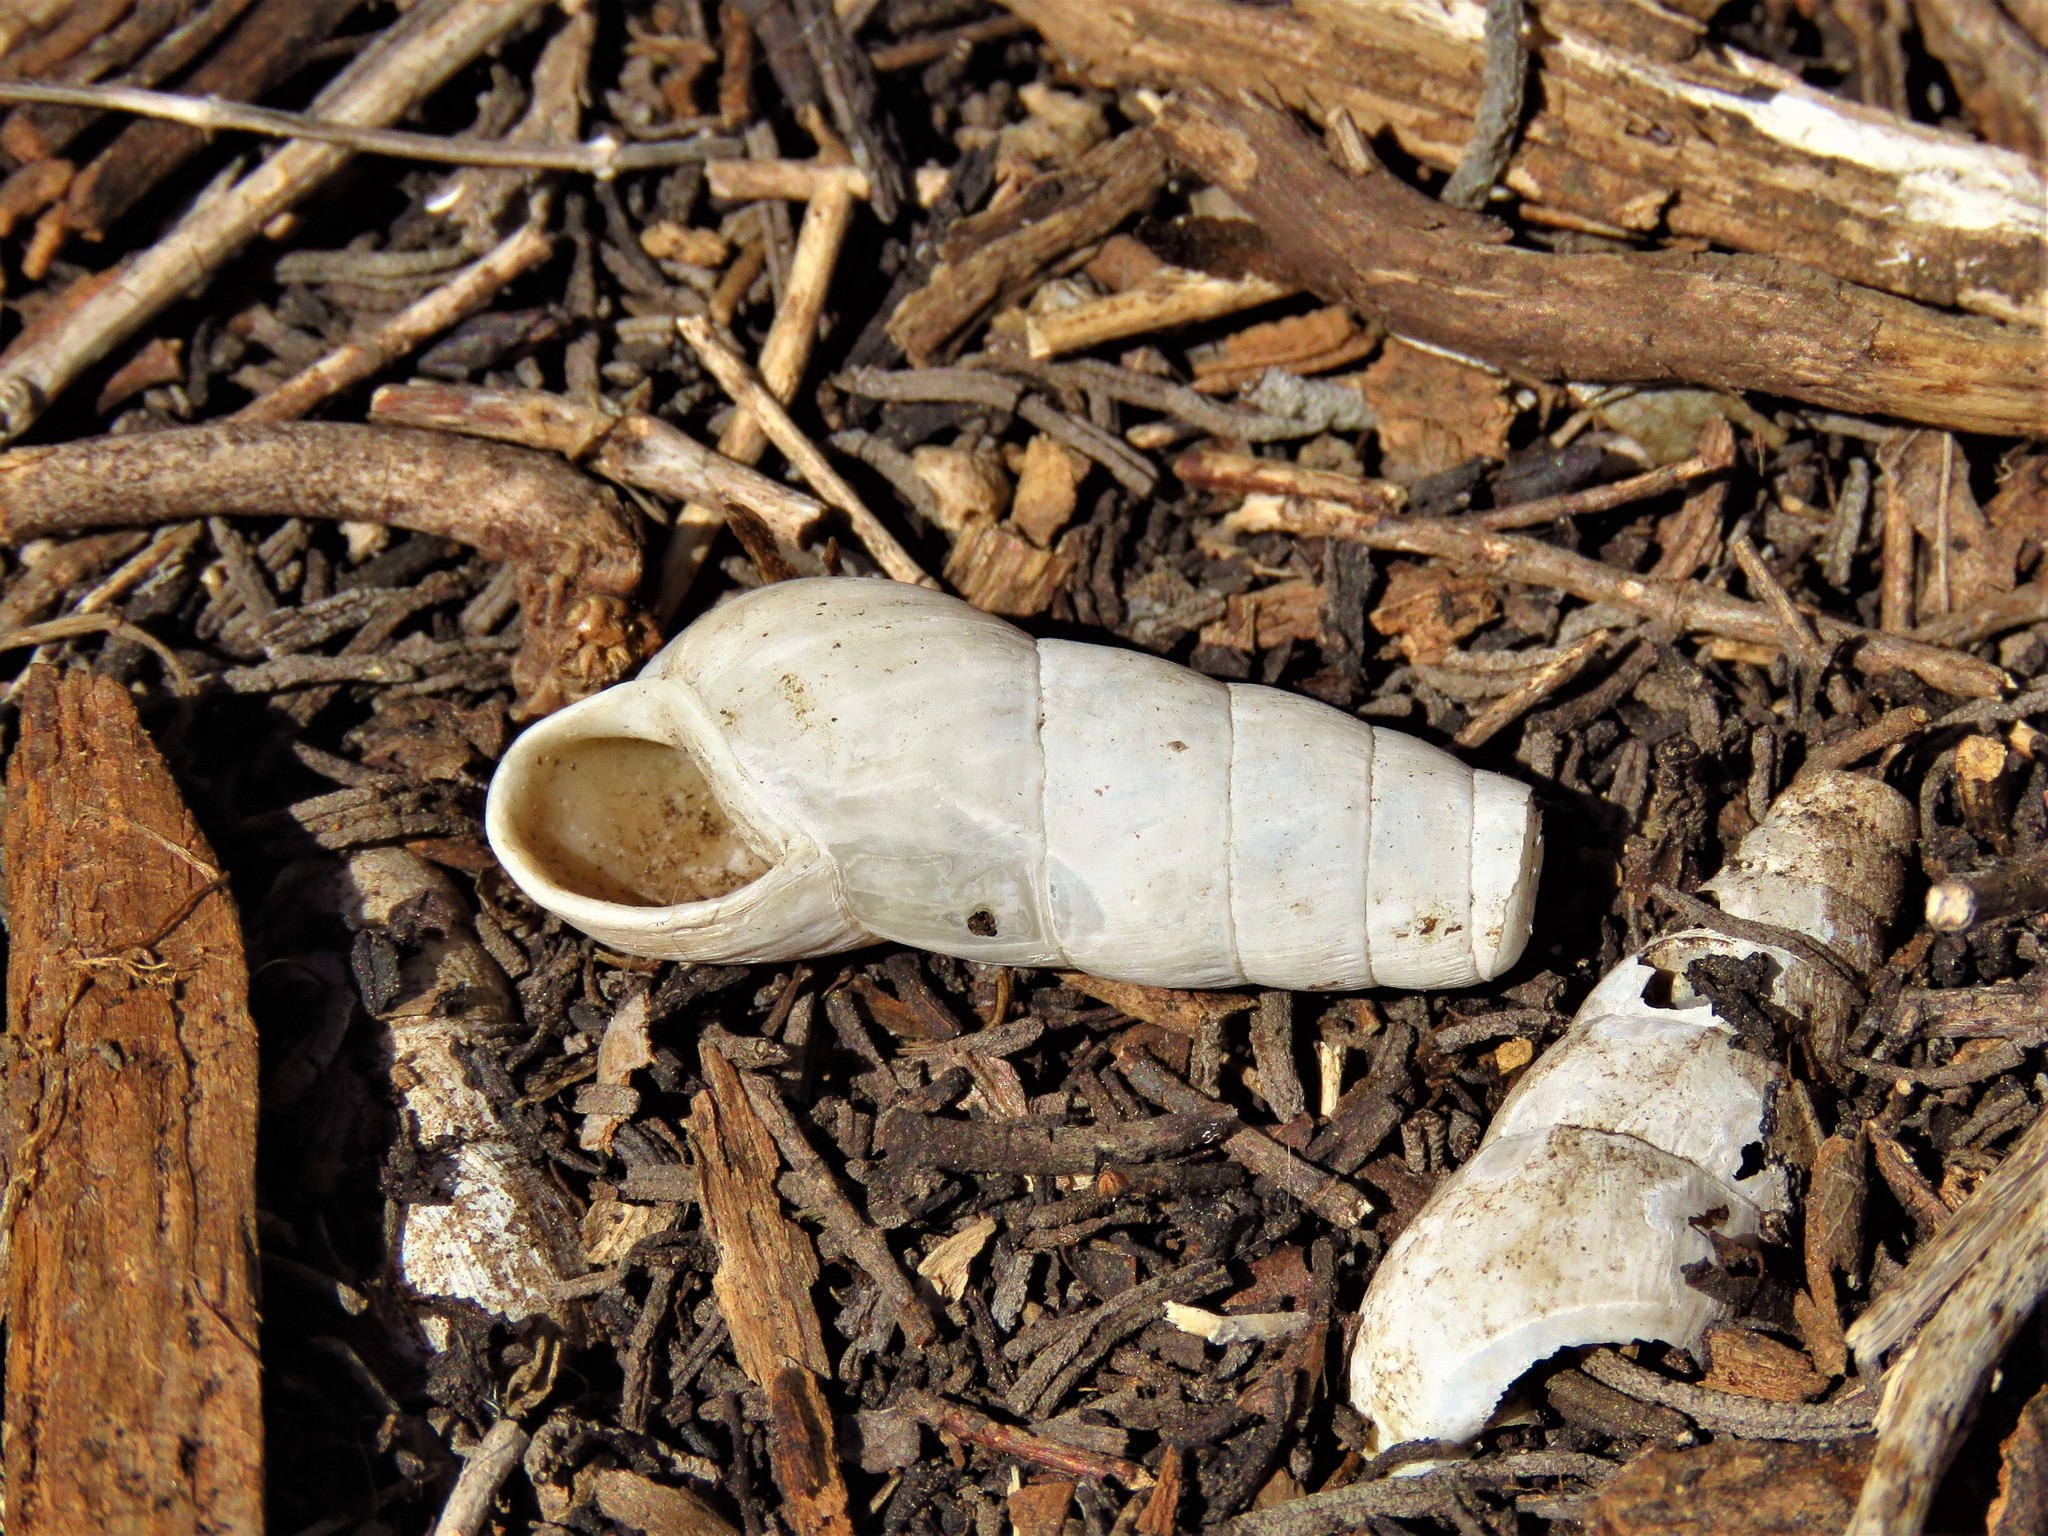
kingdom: Animalia
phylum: Mollusca
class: Gastropoda
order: Stylommatophora
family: Achatinidae
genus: Rumina
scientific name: Rumina decollata
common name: Decollate snail
